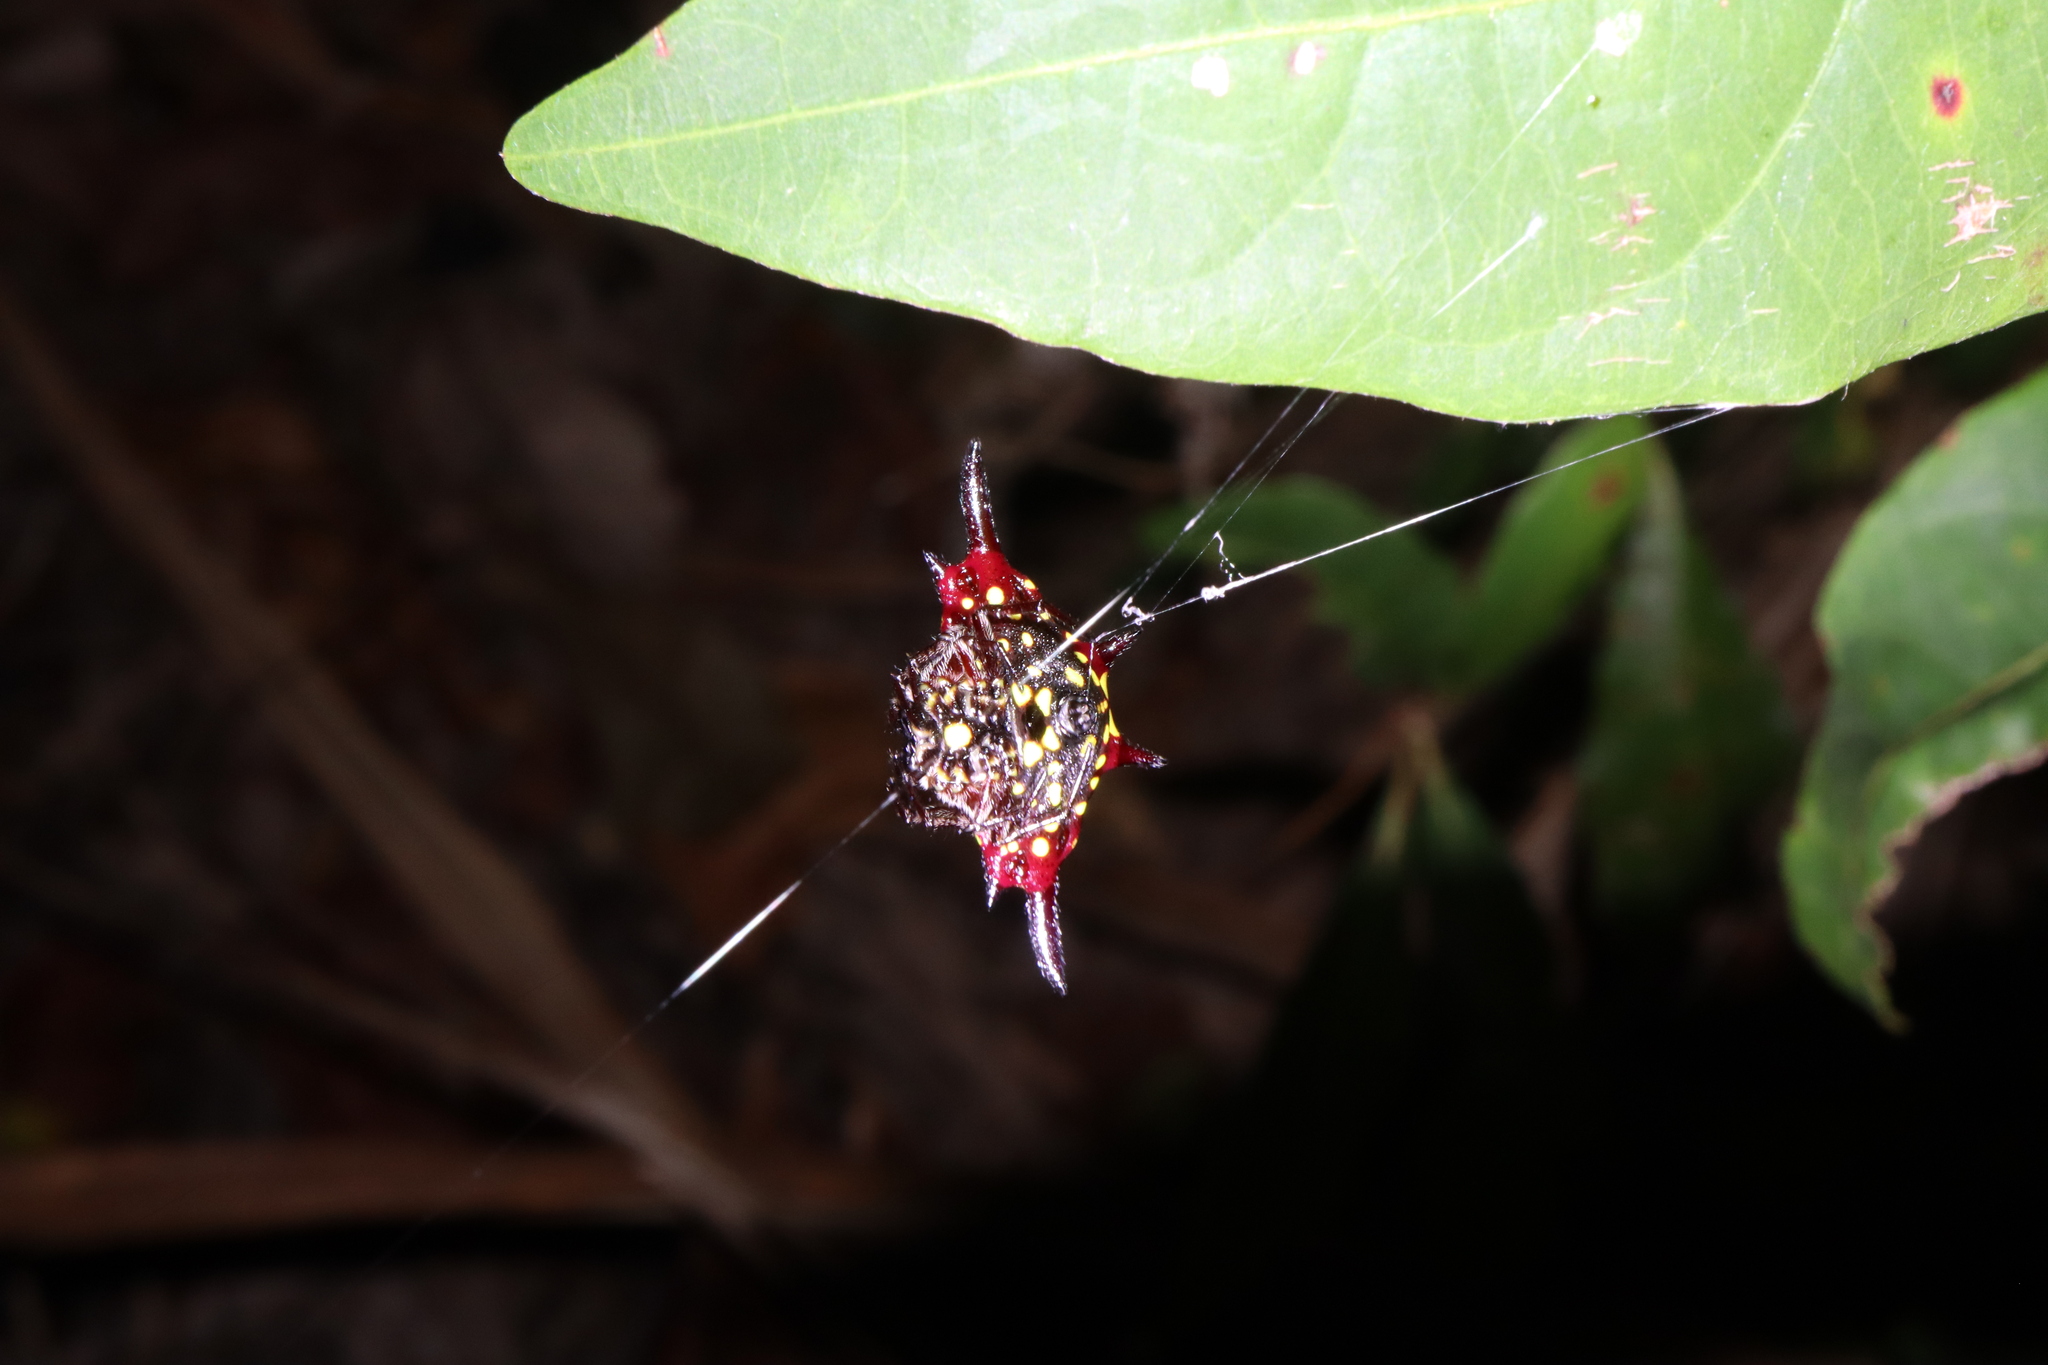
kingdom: Animalia
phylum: Arthropoda
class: Arachnida
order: Araneae
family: Araneidae
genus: Gasteracantha
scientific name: Gasteracantha fornicata
